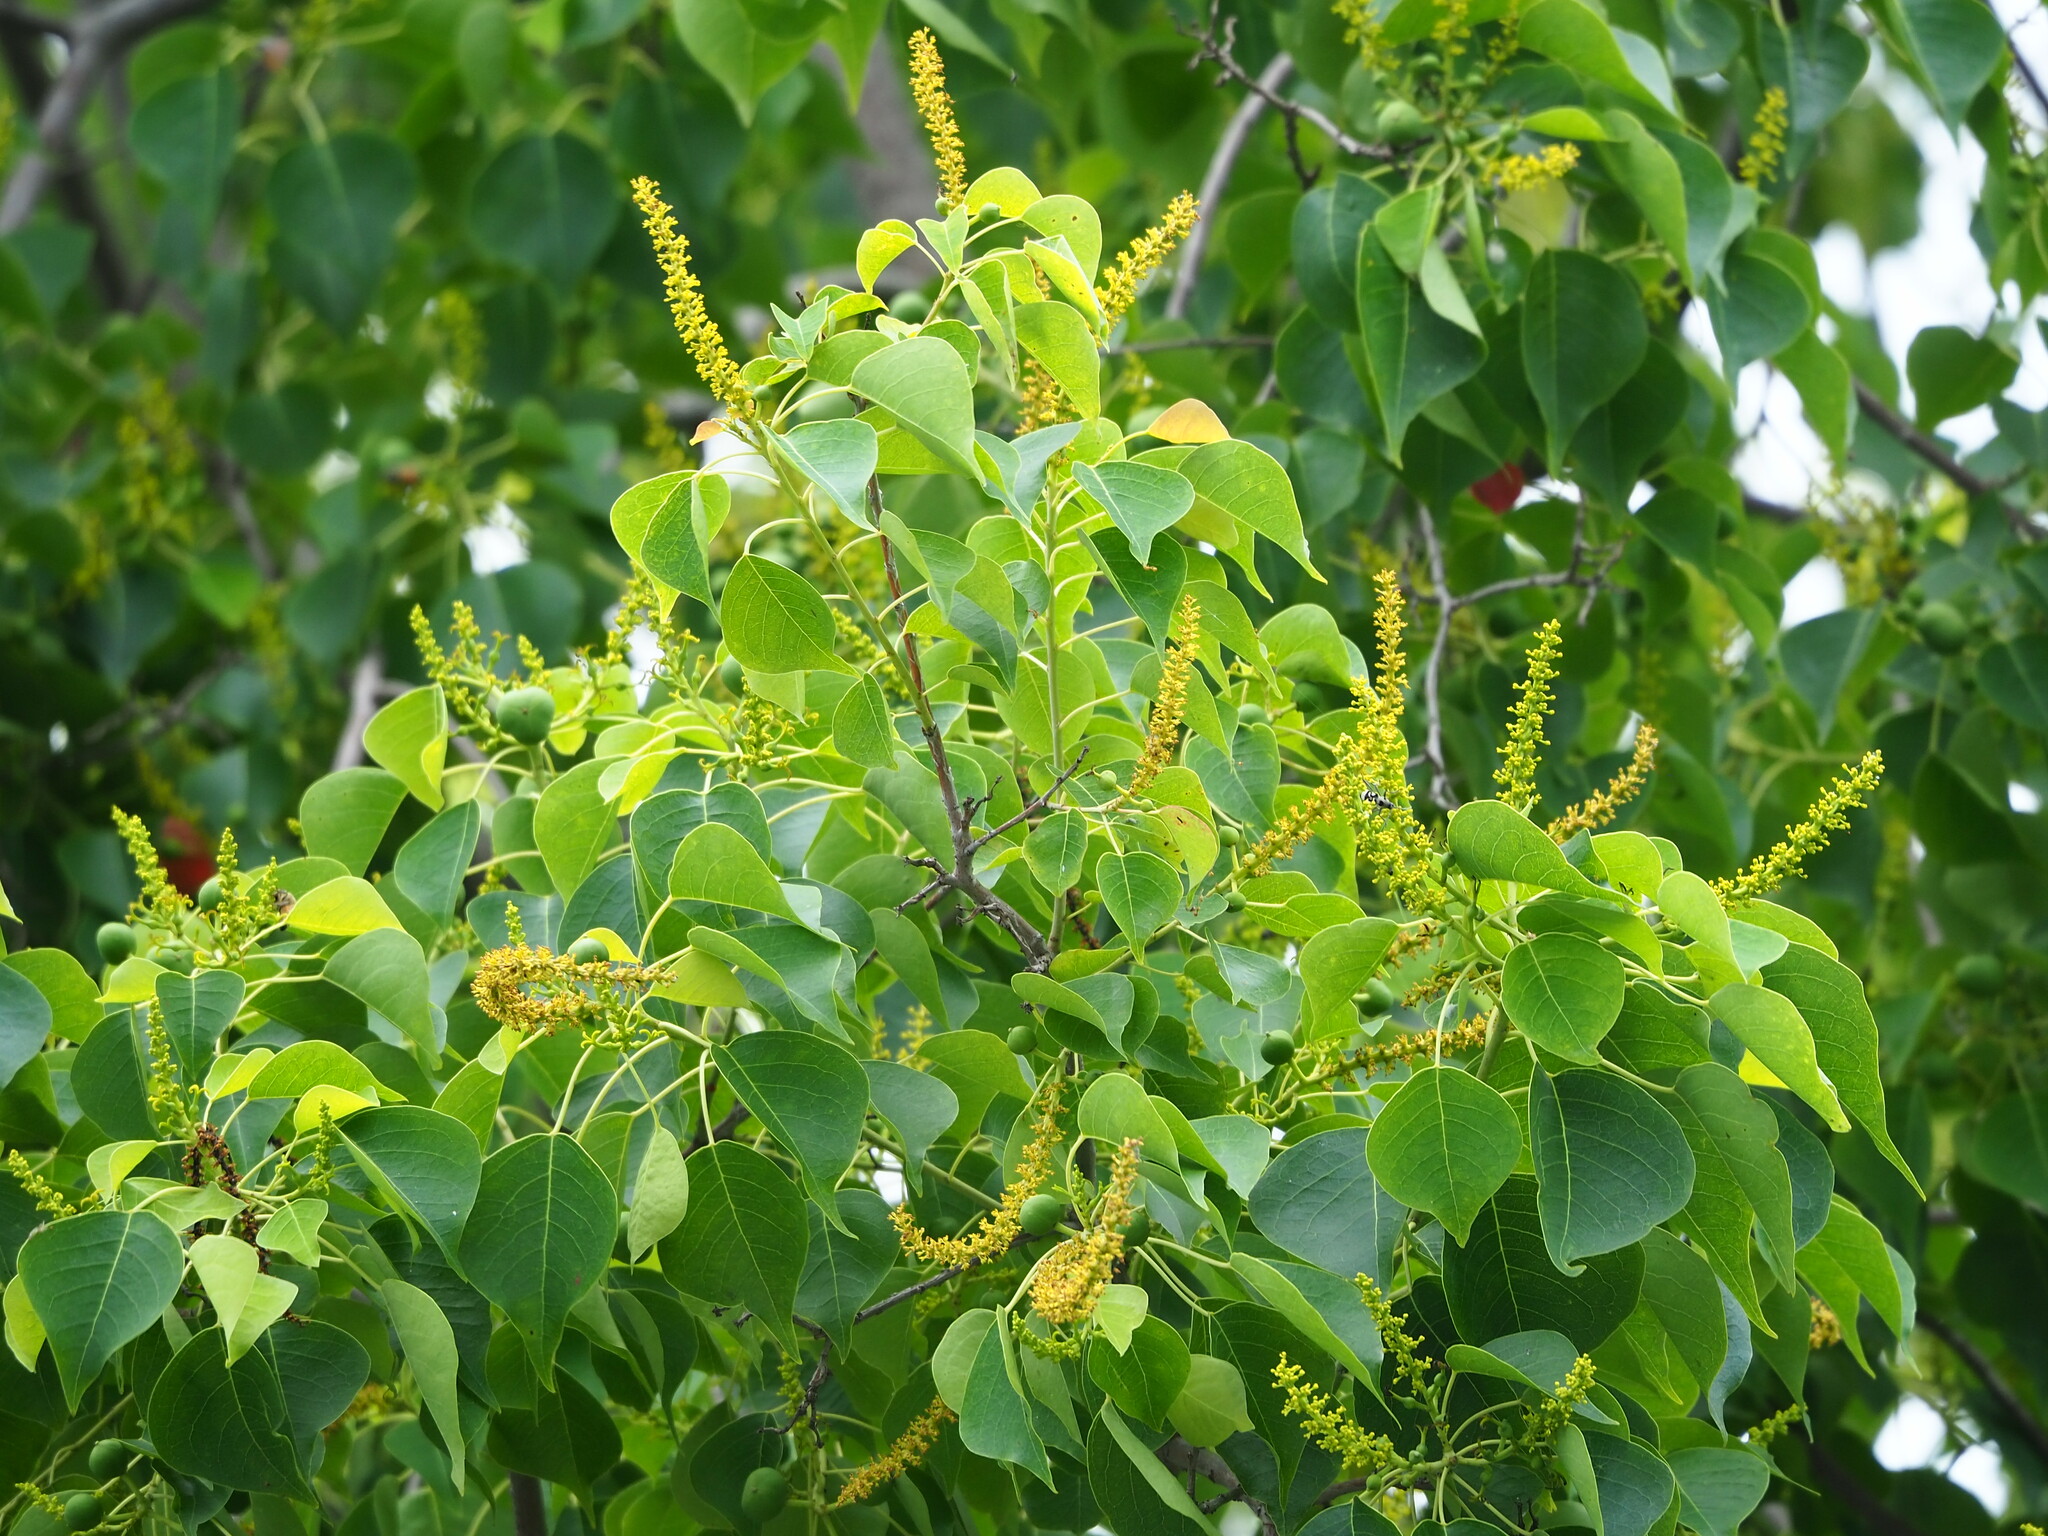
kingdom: Plantae
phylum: Tracheophyta
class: Magnoliopsida
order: Malpighiales
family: Euphorbiaceae
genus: Triadica
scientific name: Triadica sebifera
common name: Chinese tallow
